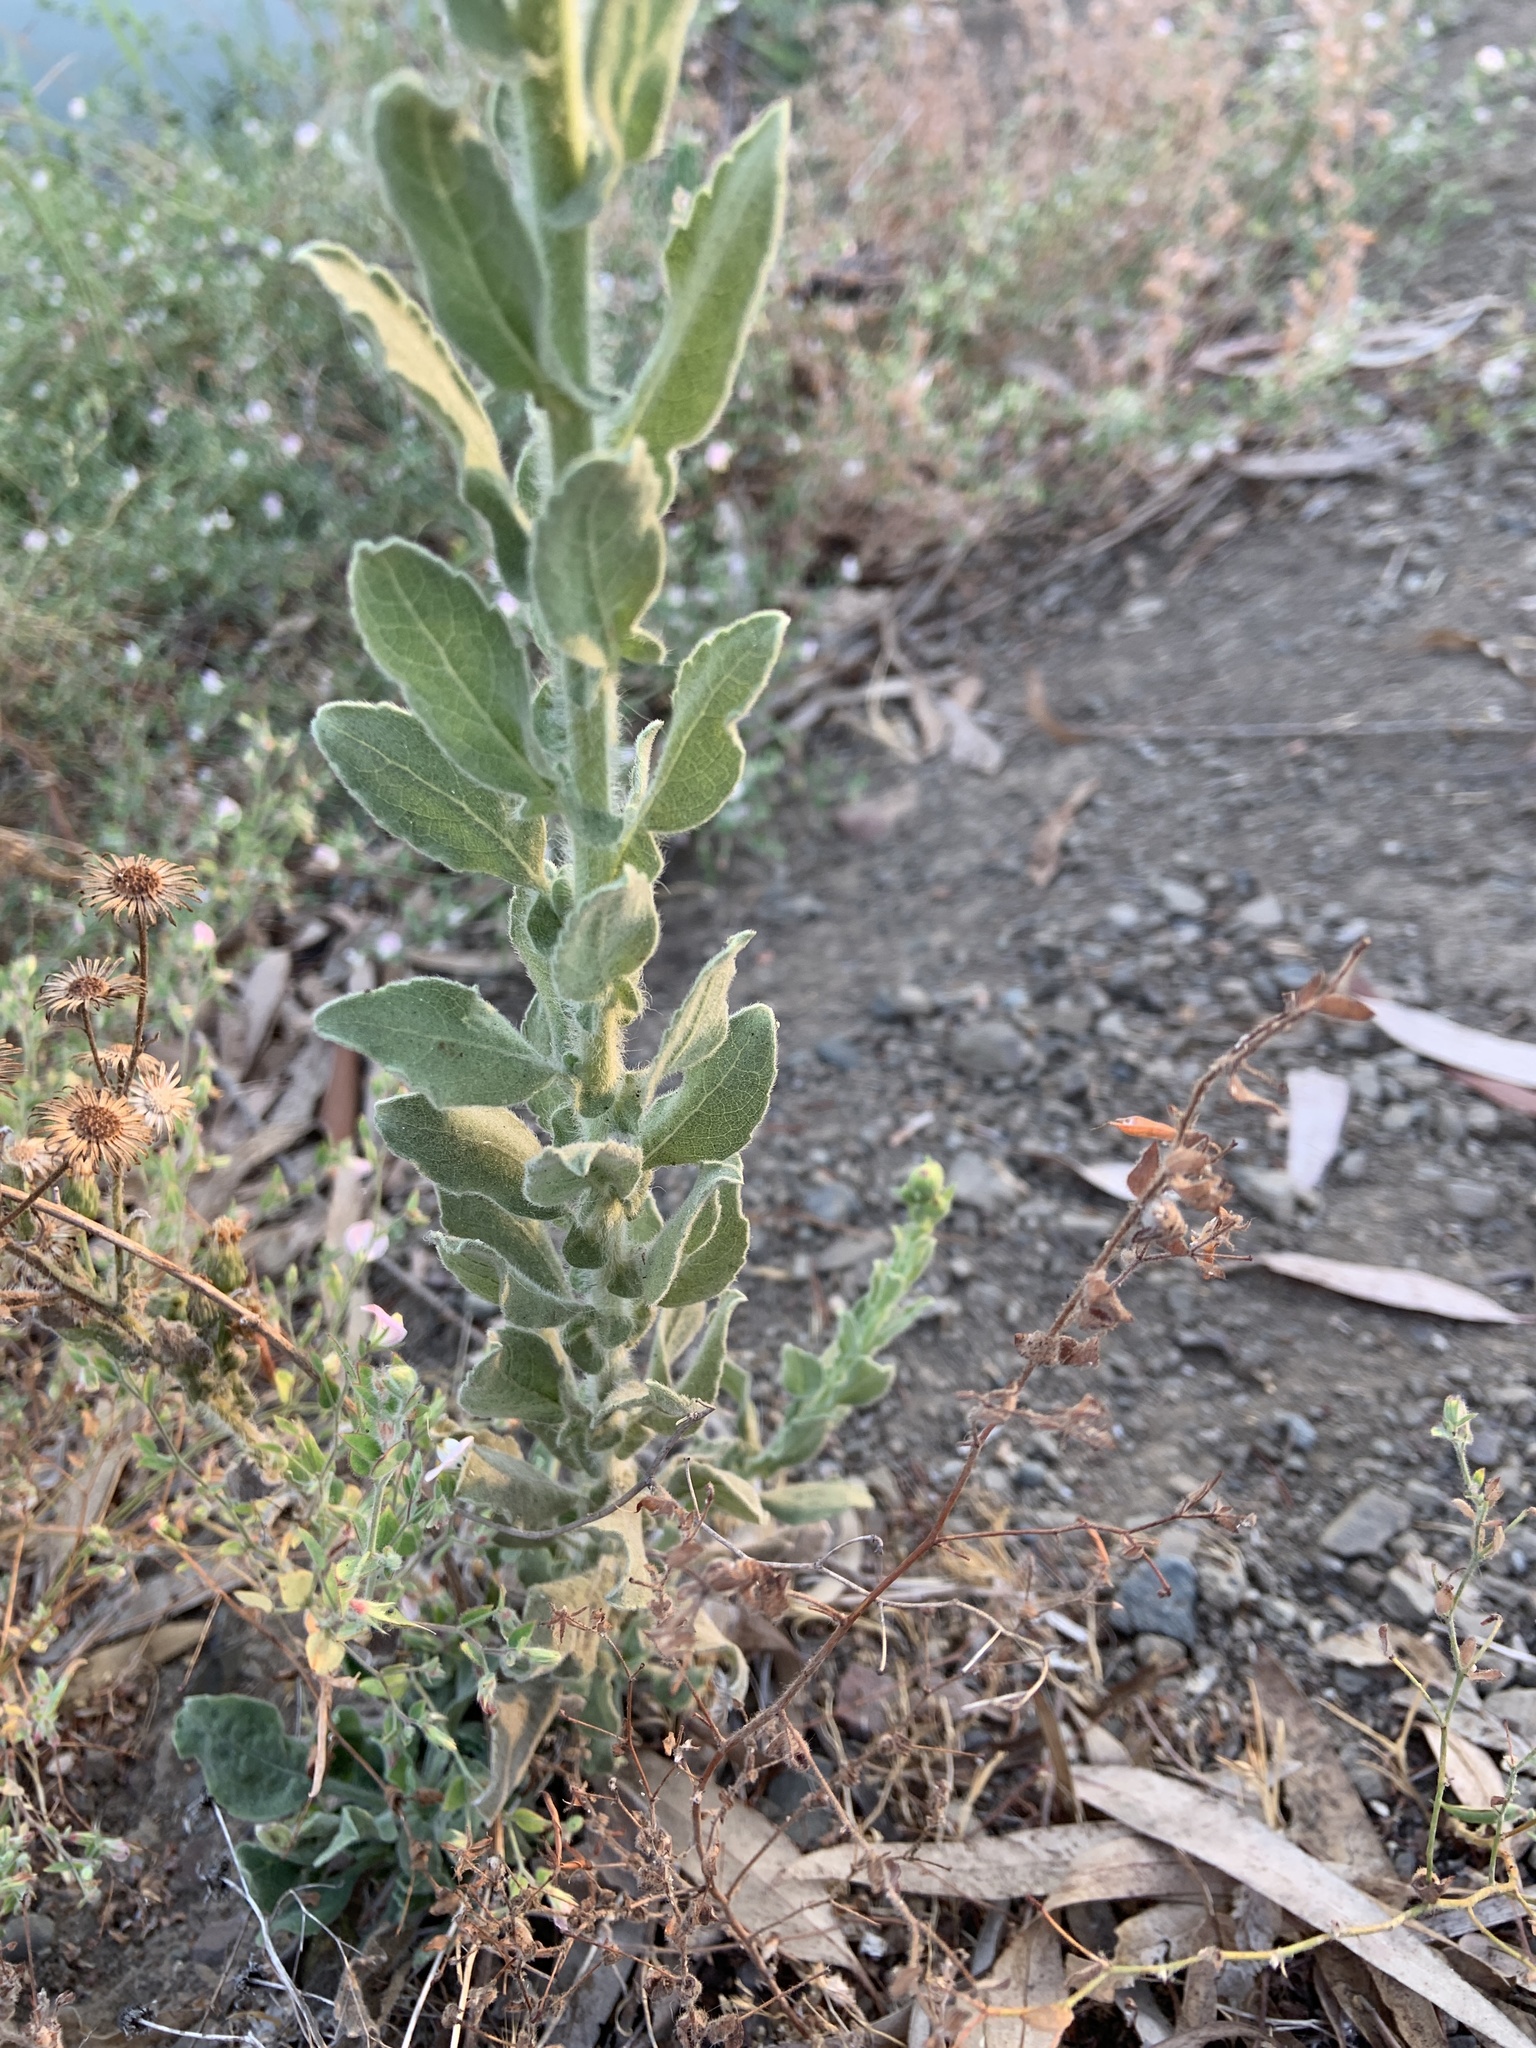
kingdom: Plantae
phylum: Tracheophyta
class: Magnoliopsida
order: Asterales
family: Asteraceae
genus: Heterotheca
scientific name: Heterotheca grandiflora
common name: Telegraphweed
